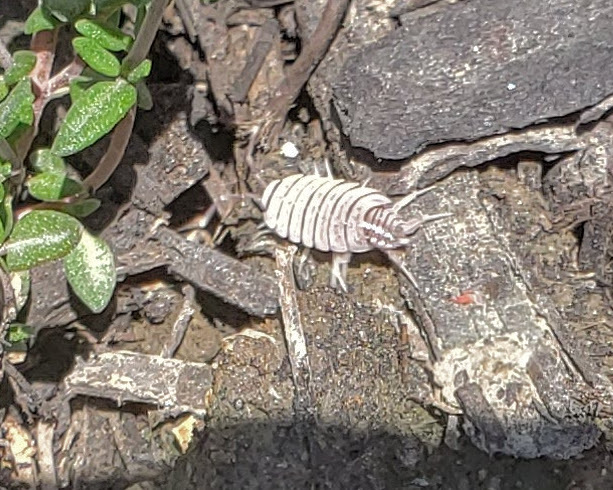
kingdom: Animalia
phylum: Arthropoda
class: Malacostraca
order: Isopoda
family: Porcellionidae
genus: Porcellionides
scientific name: Porcellionides
